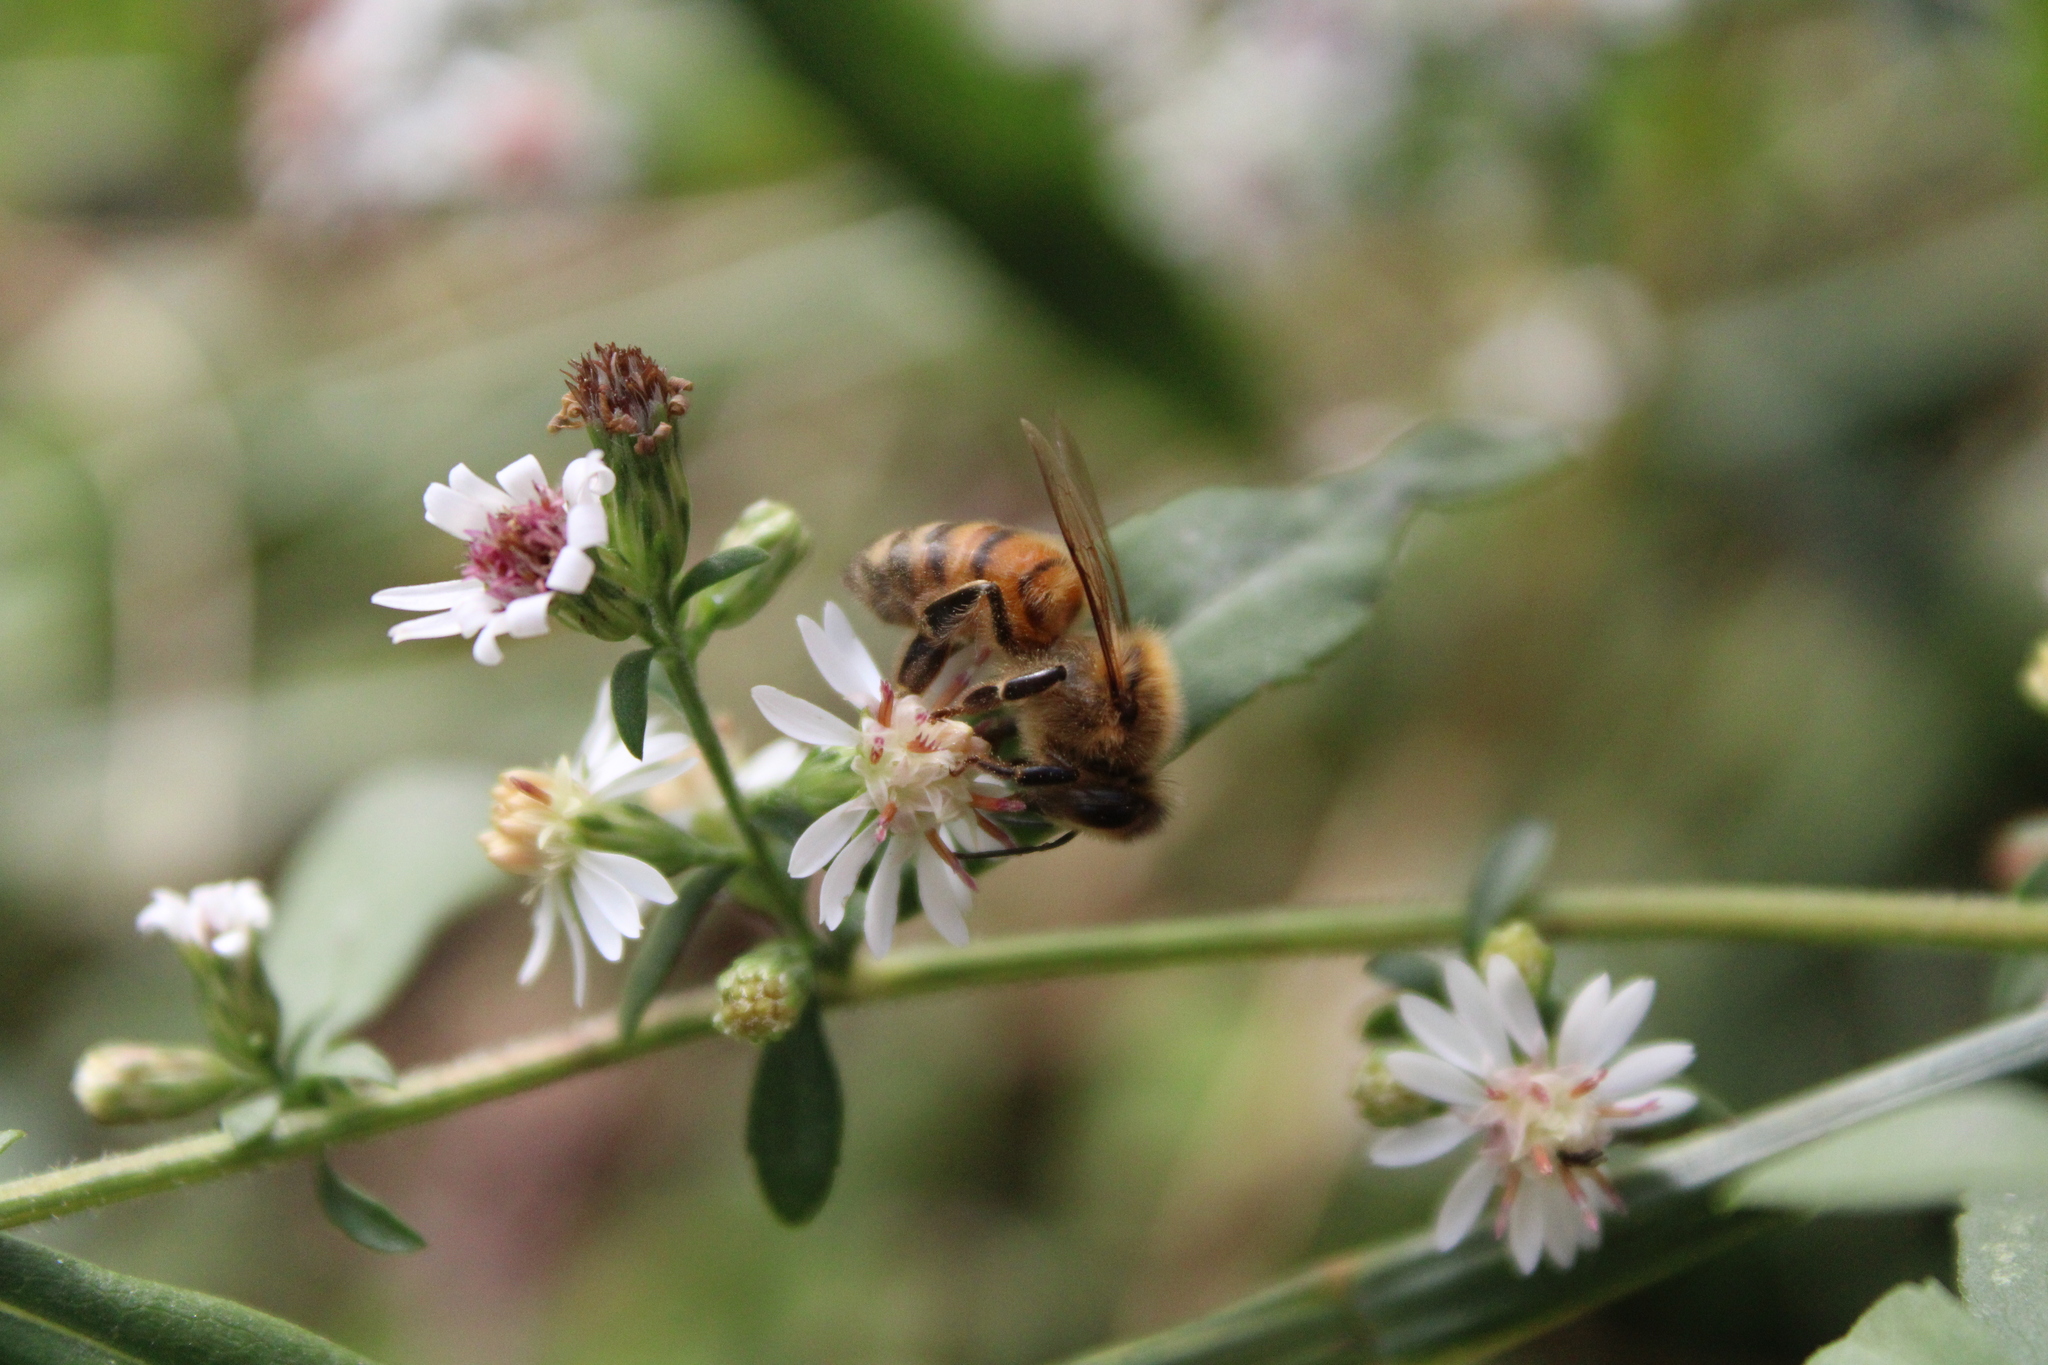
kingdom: Animalia
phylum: Arthropoda
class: Insecta
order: Hymenoptera
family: Apidae
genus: Apis
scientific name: Apis mellifera
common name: Honey bee
